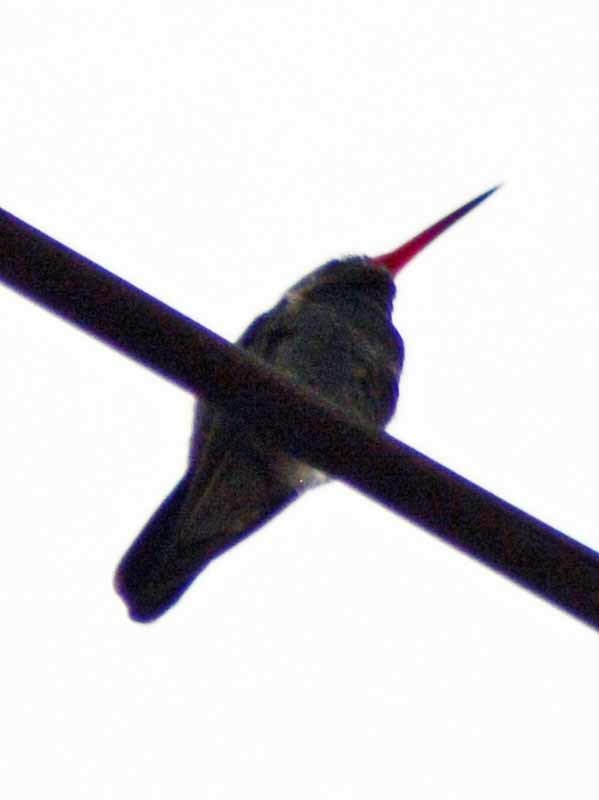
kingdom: Animalia
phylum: Chordata
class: Aves
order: Apodiformes
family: Trochilidae
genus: Cynanthus
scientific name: Cynanthus latirostris
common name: Broad-billed hummingbird
